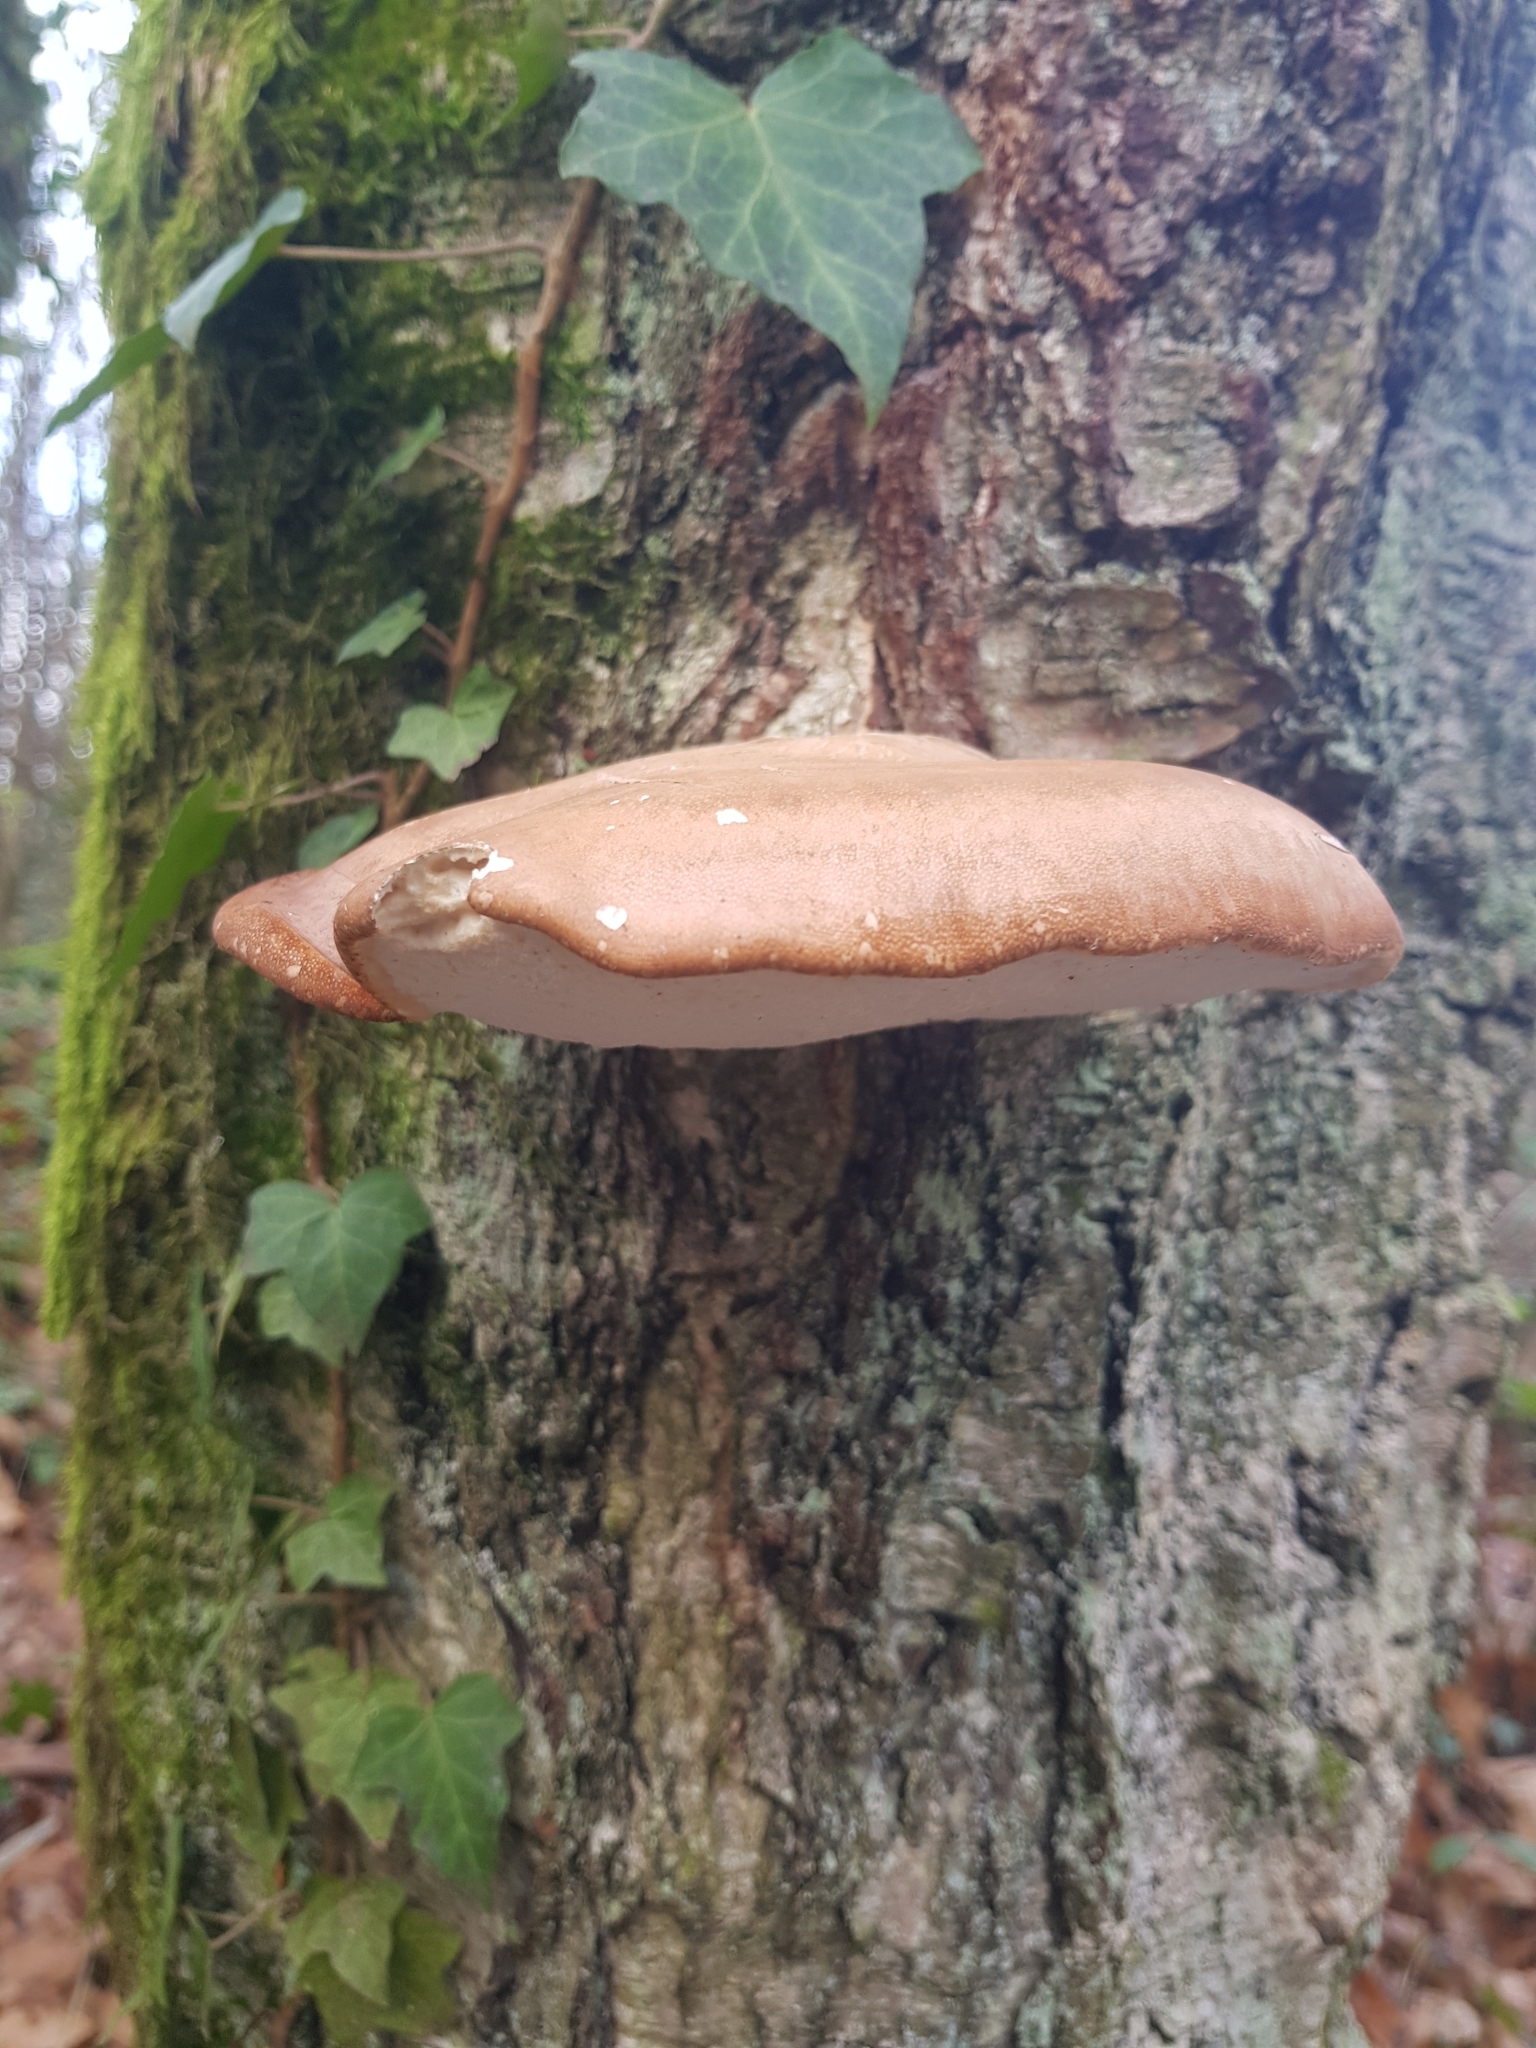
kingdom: Fungi
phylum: Basidiomycota
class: Agaricomycetes
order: Polyporales
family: Fomitopsidaceae
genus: Fomitopsis
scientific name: Fomitopsis betulina
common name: Birch polypore
